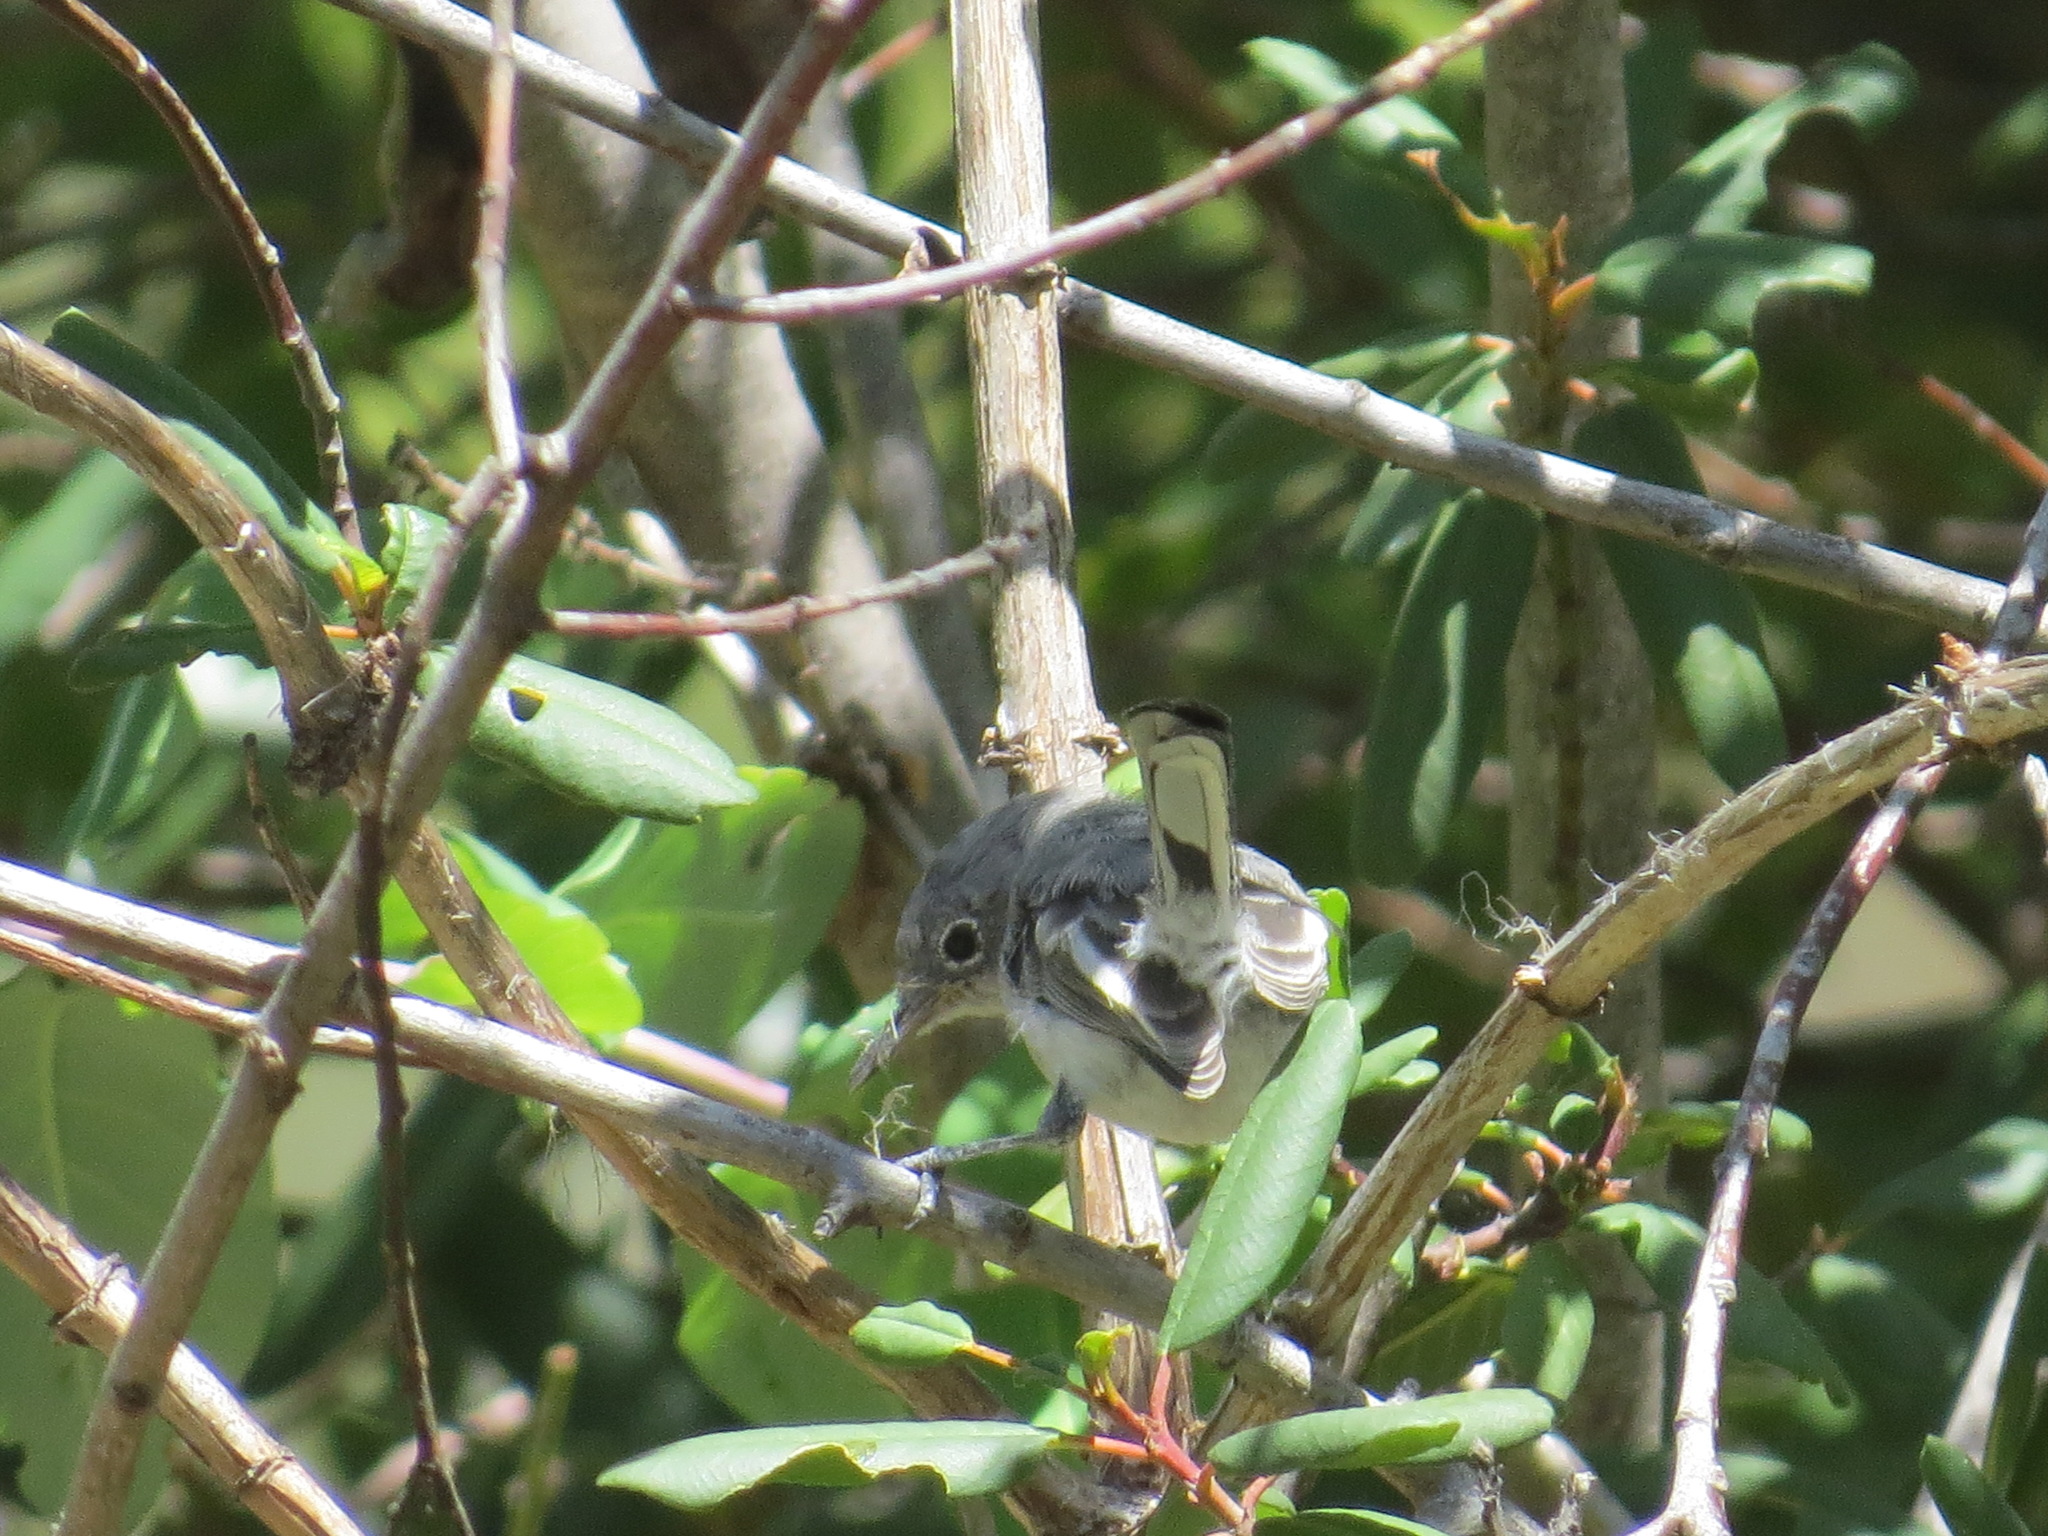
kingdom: Animalia
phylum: Chordata
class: Aves
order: Passeriformes
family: Polioptilidae
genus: Polioptila
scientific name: Polioptila caerulea
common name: Blue-gray gnatcatcher
